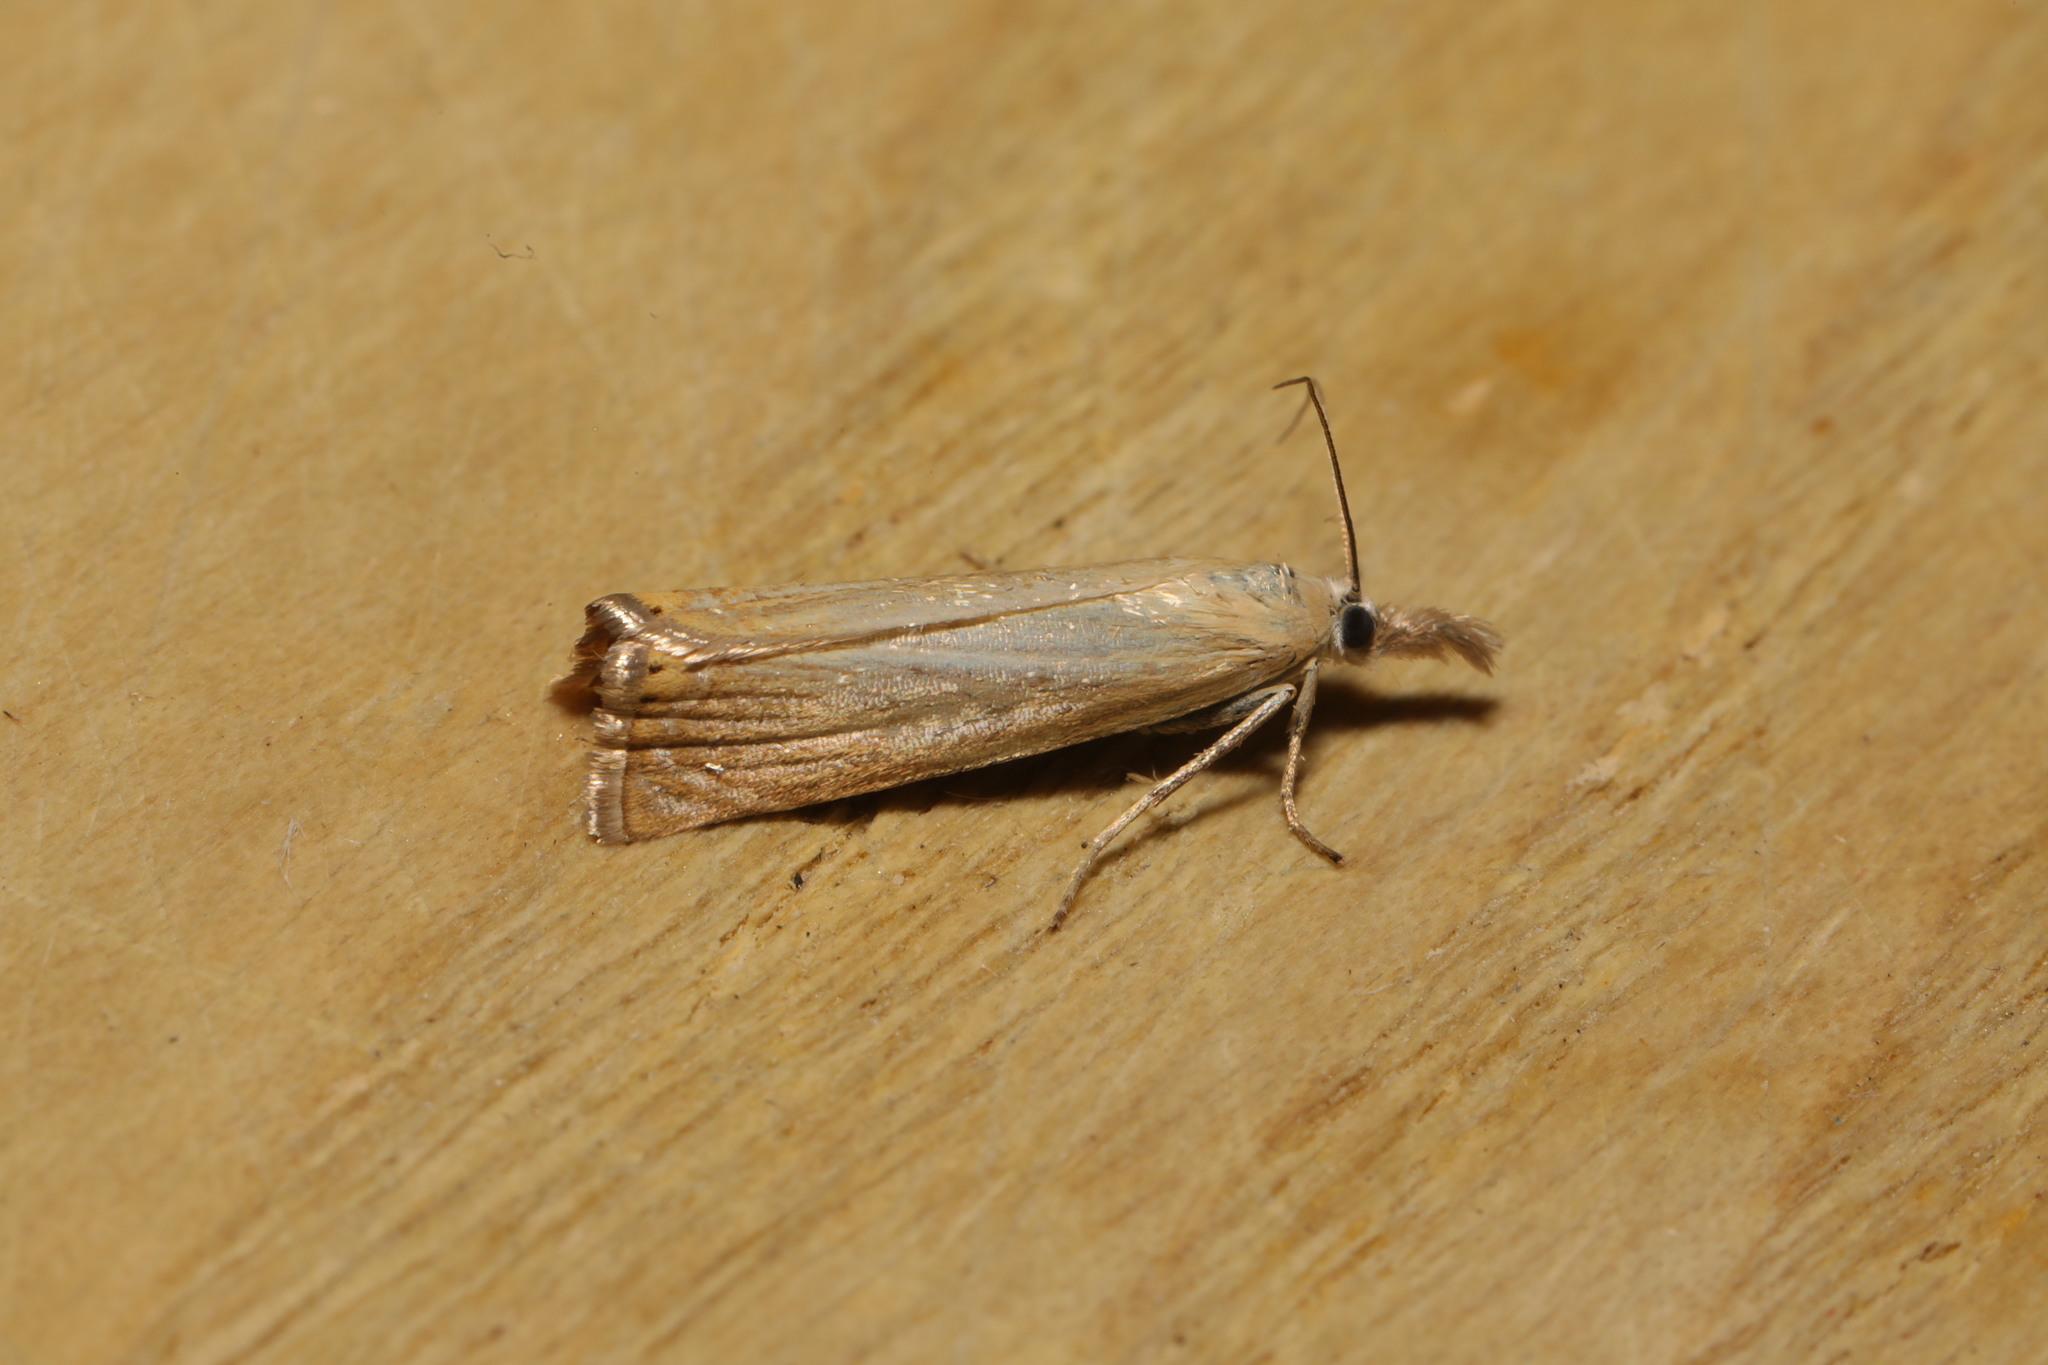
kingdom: Animalia
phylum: Arthropoda
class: Insecta
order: Lepidoptera
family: Crambidae
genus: Chrysoteuchia
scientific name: Chrysoteuchia culmella
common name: Garden grass-veneer
